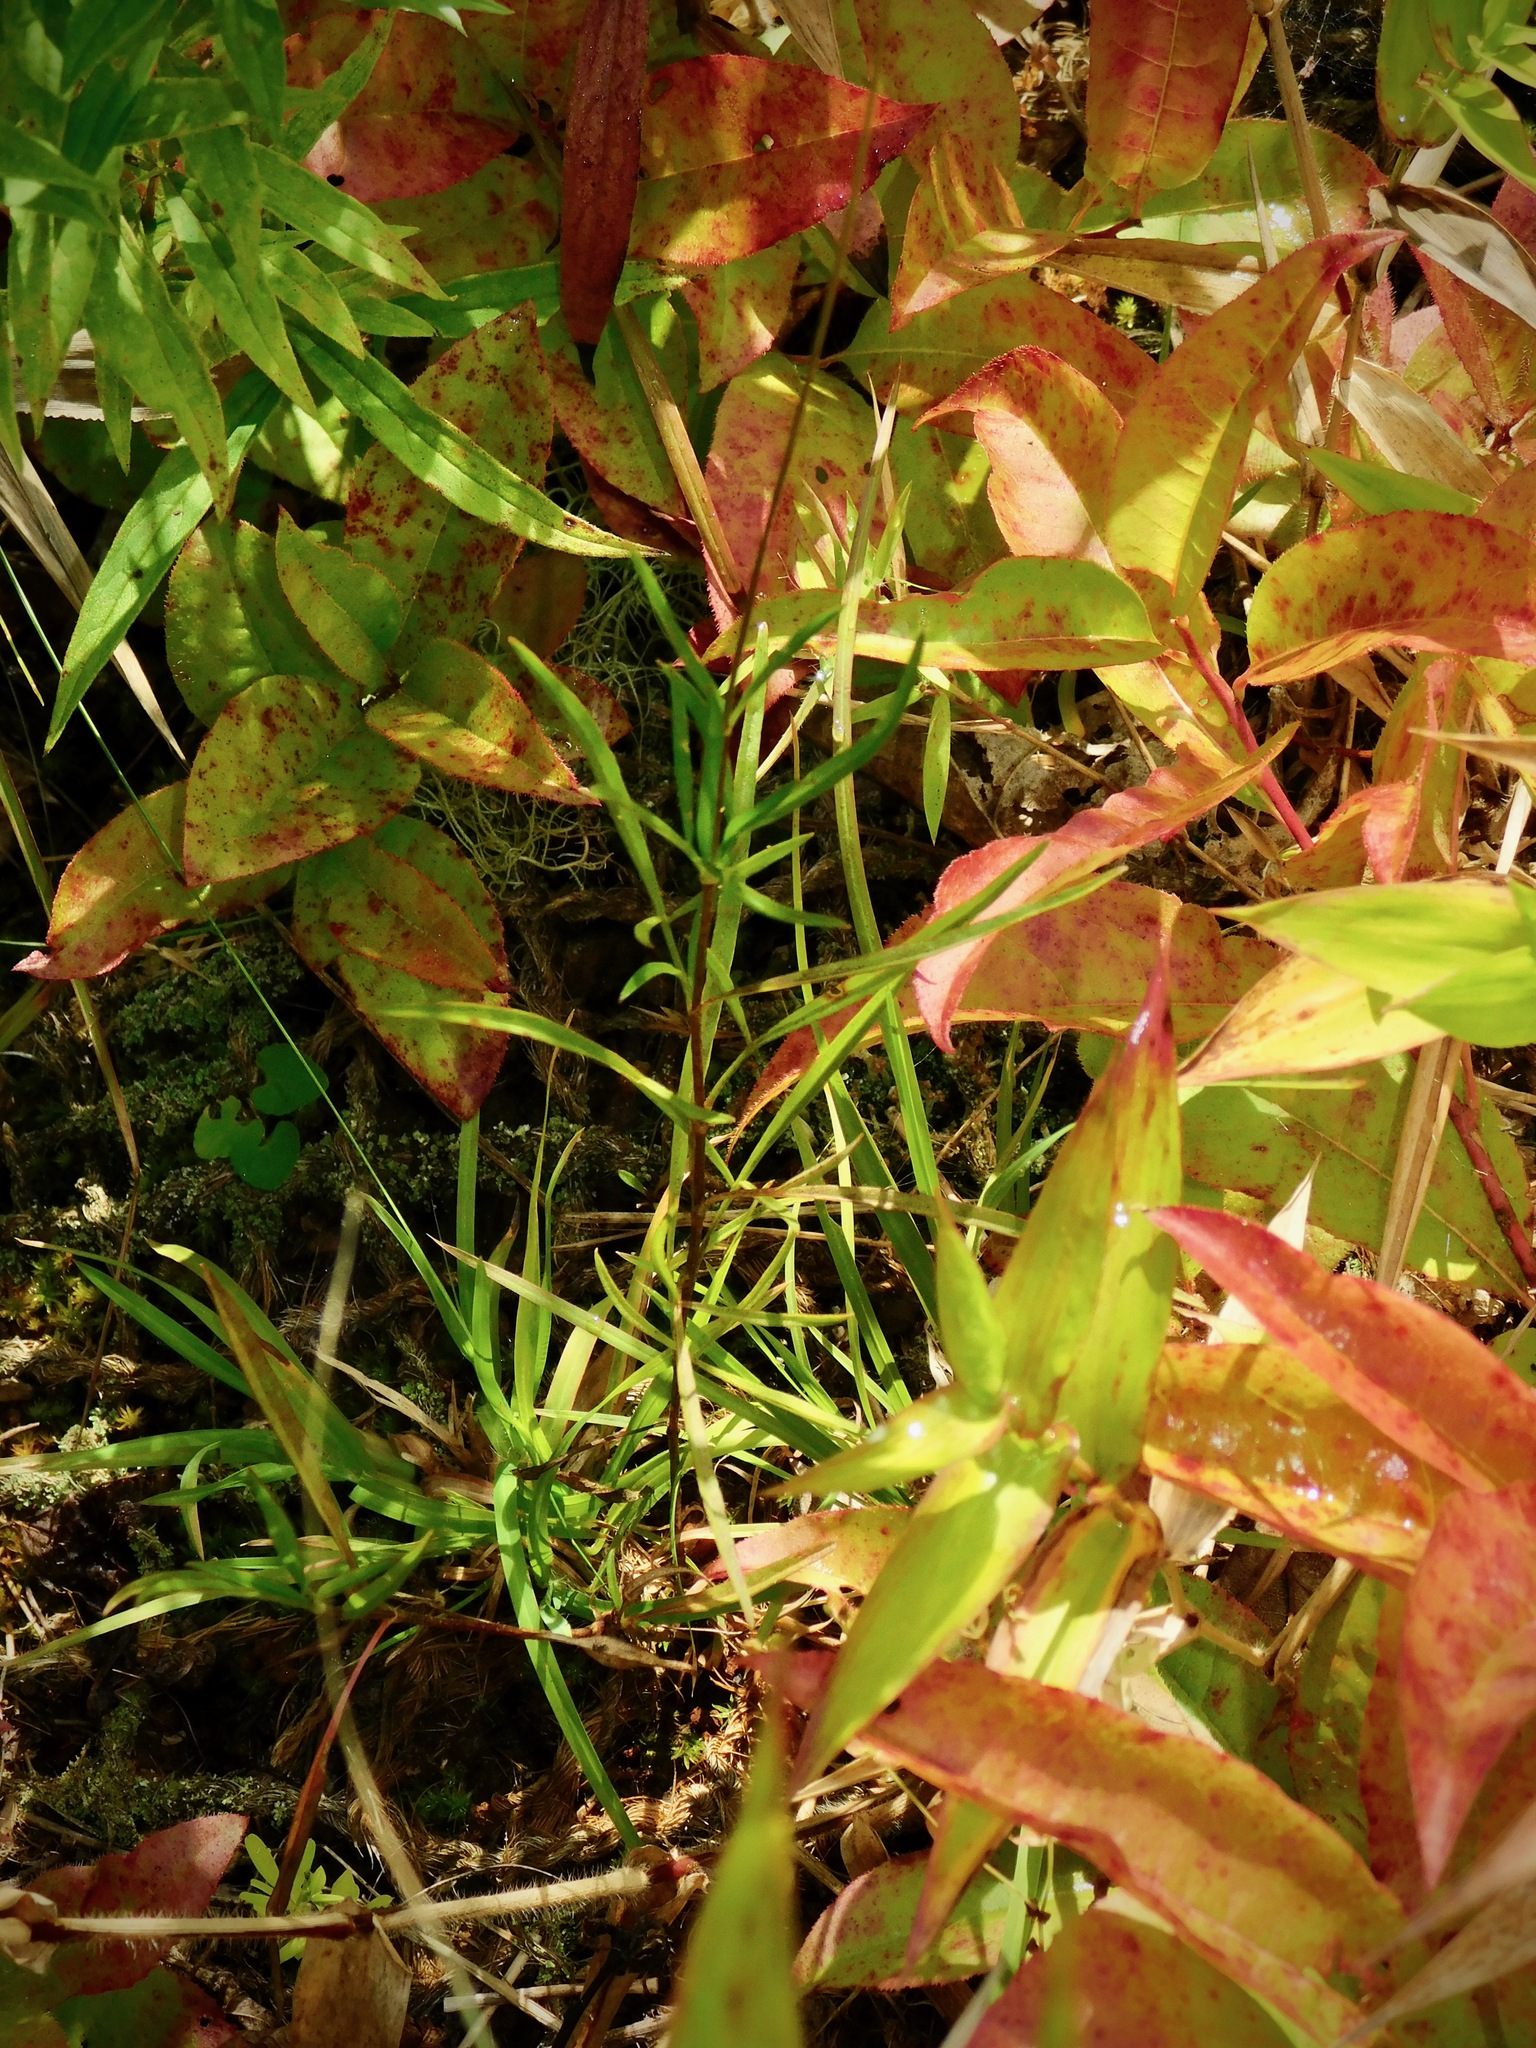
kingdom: Plantae
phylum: Tracheophyta
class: Magnoliopsida
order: Asterales
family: Asteraceae
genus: Coreopsis
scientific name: Coreopsis lanceolata
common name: Garden coreopsis
